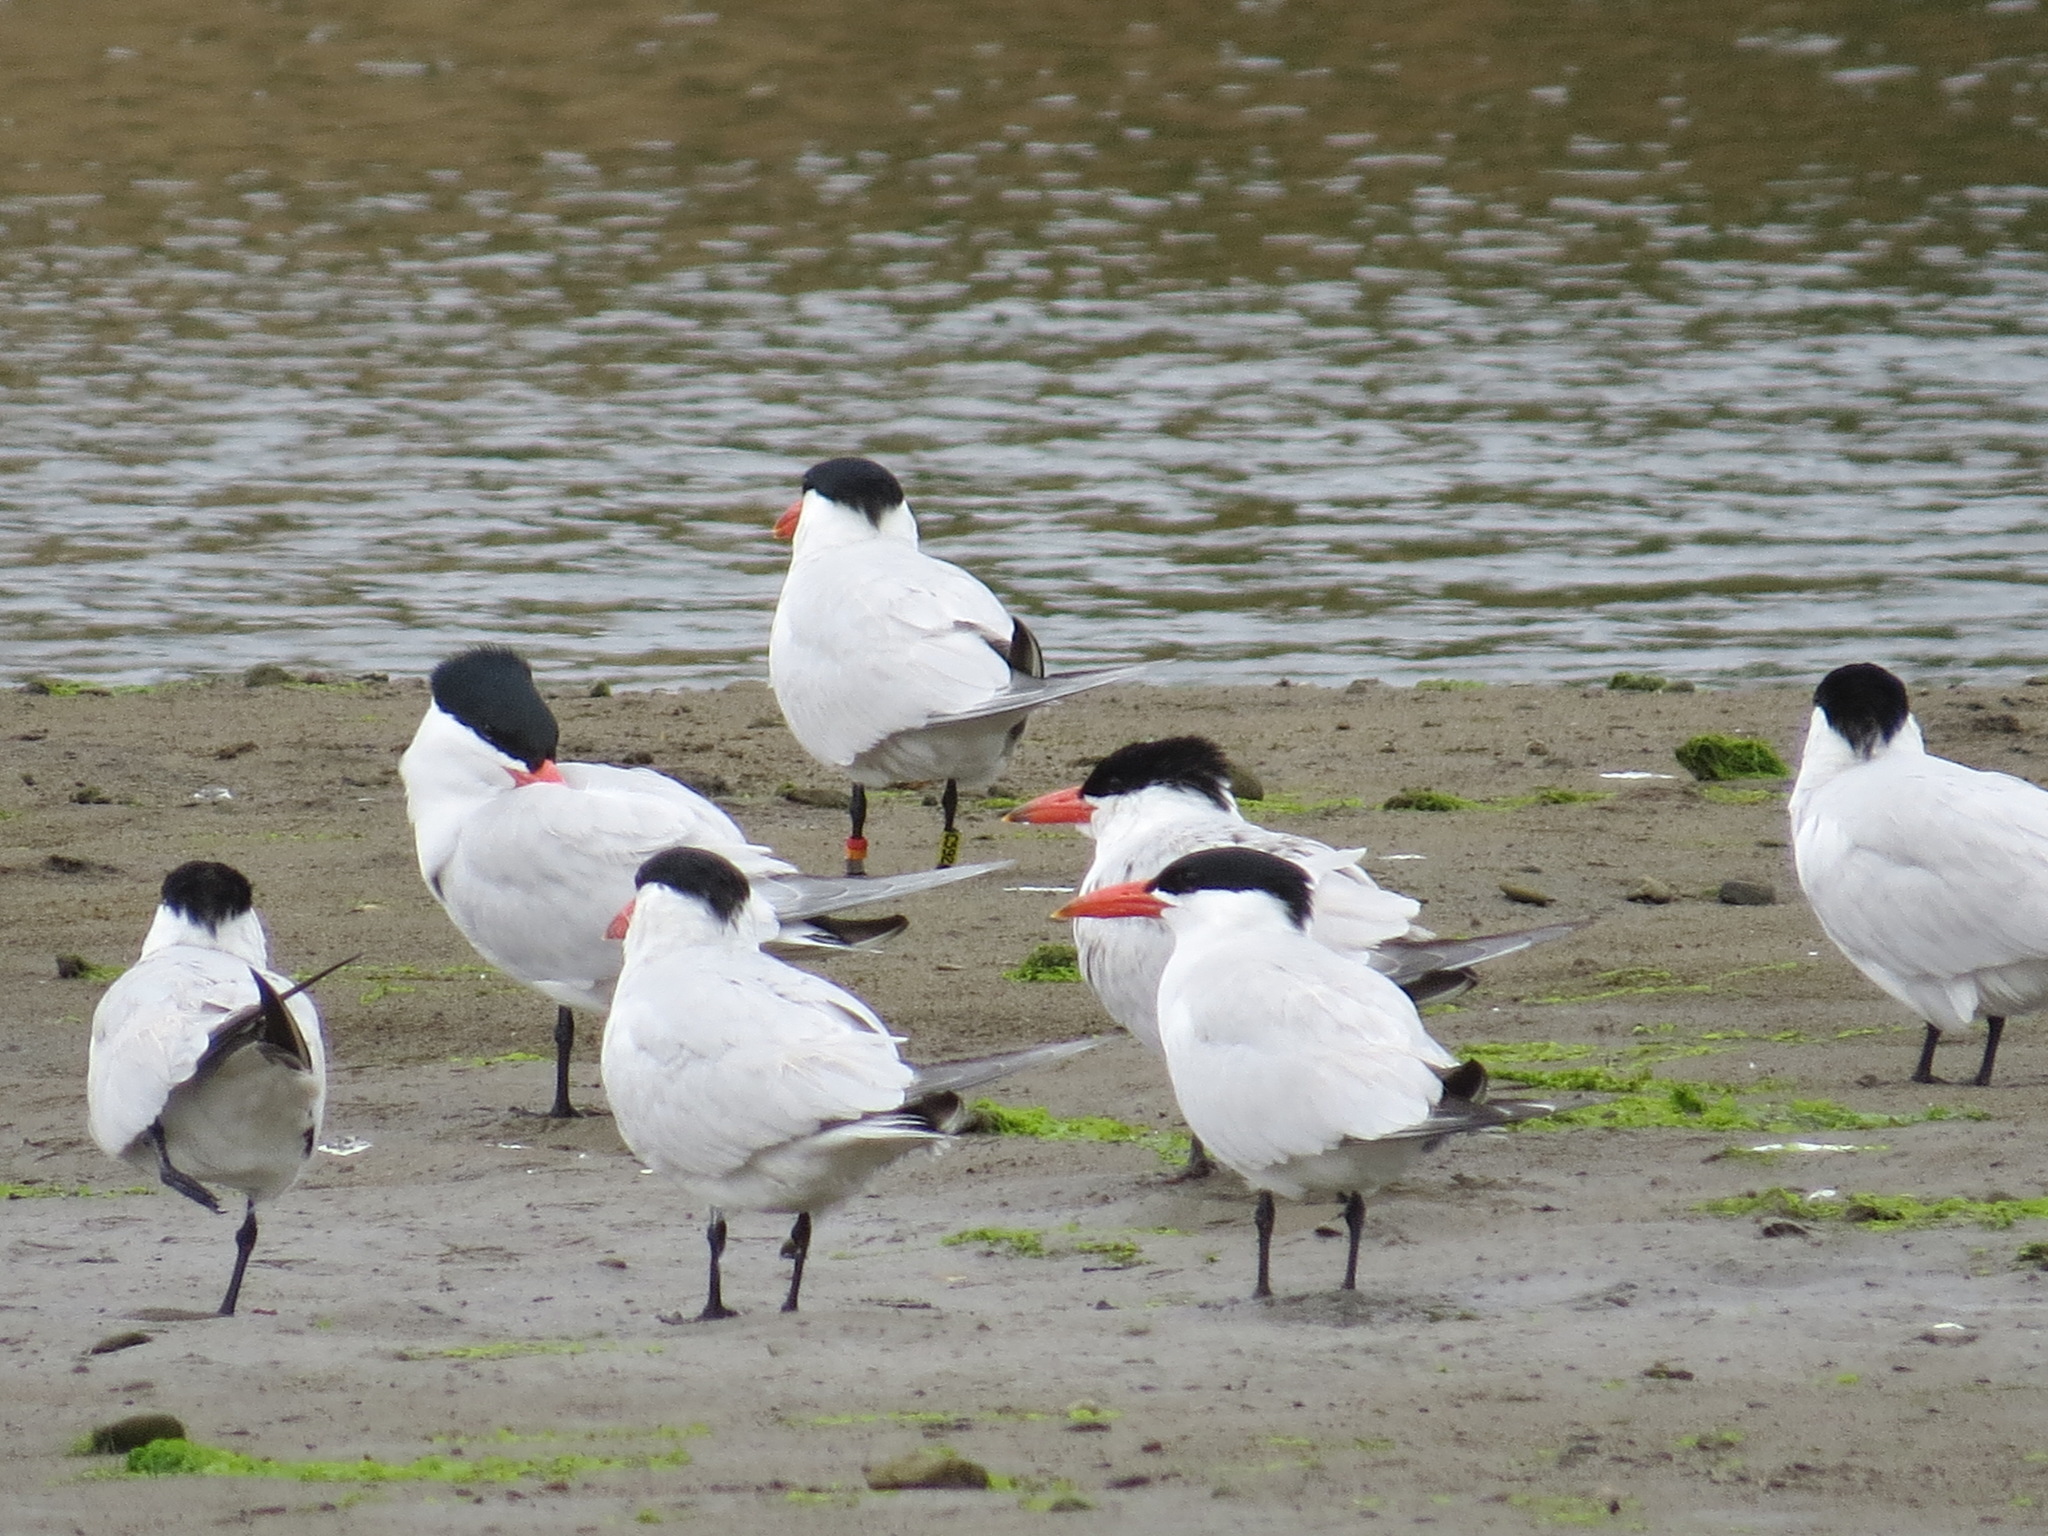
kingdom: Animalia
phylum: Chordata
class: Aves
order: Charadriiformes
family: Laridae
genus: Hydroprogne
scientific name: Hydroprogne caspia
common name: Caspian tern
